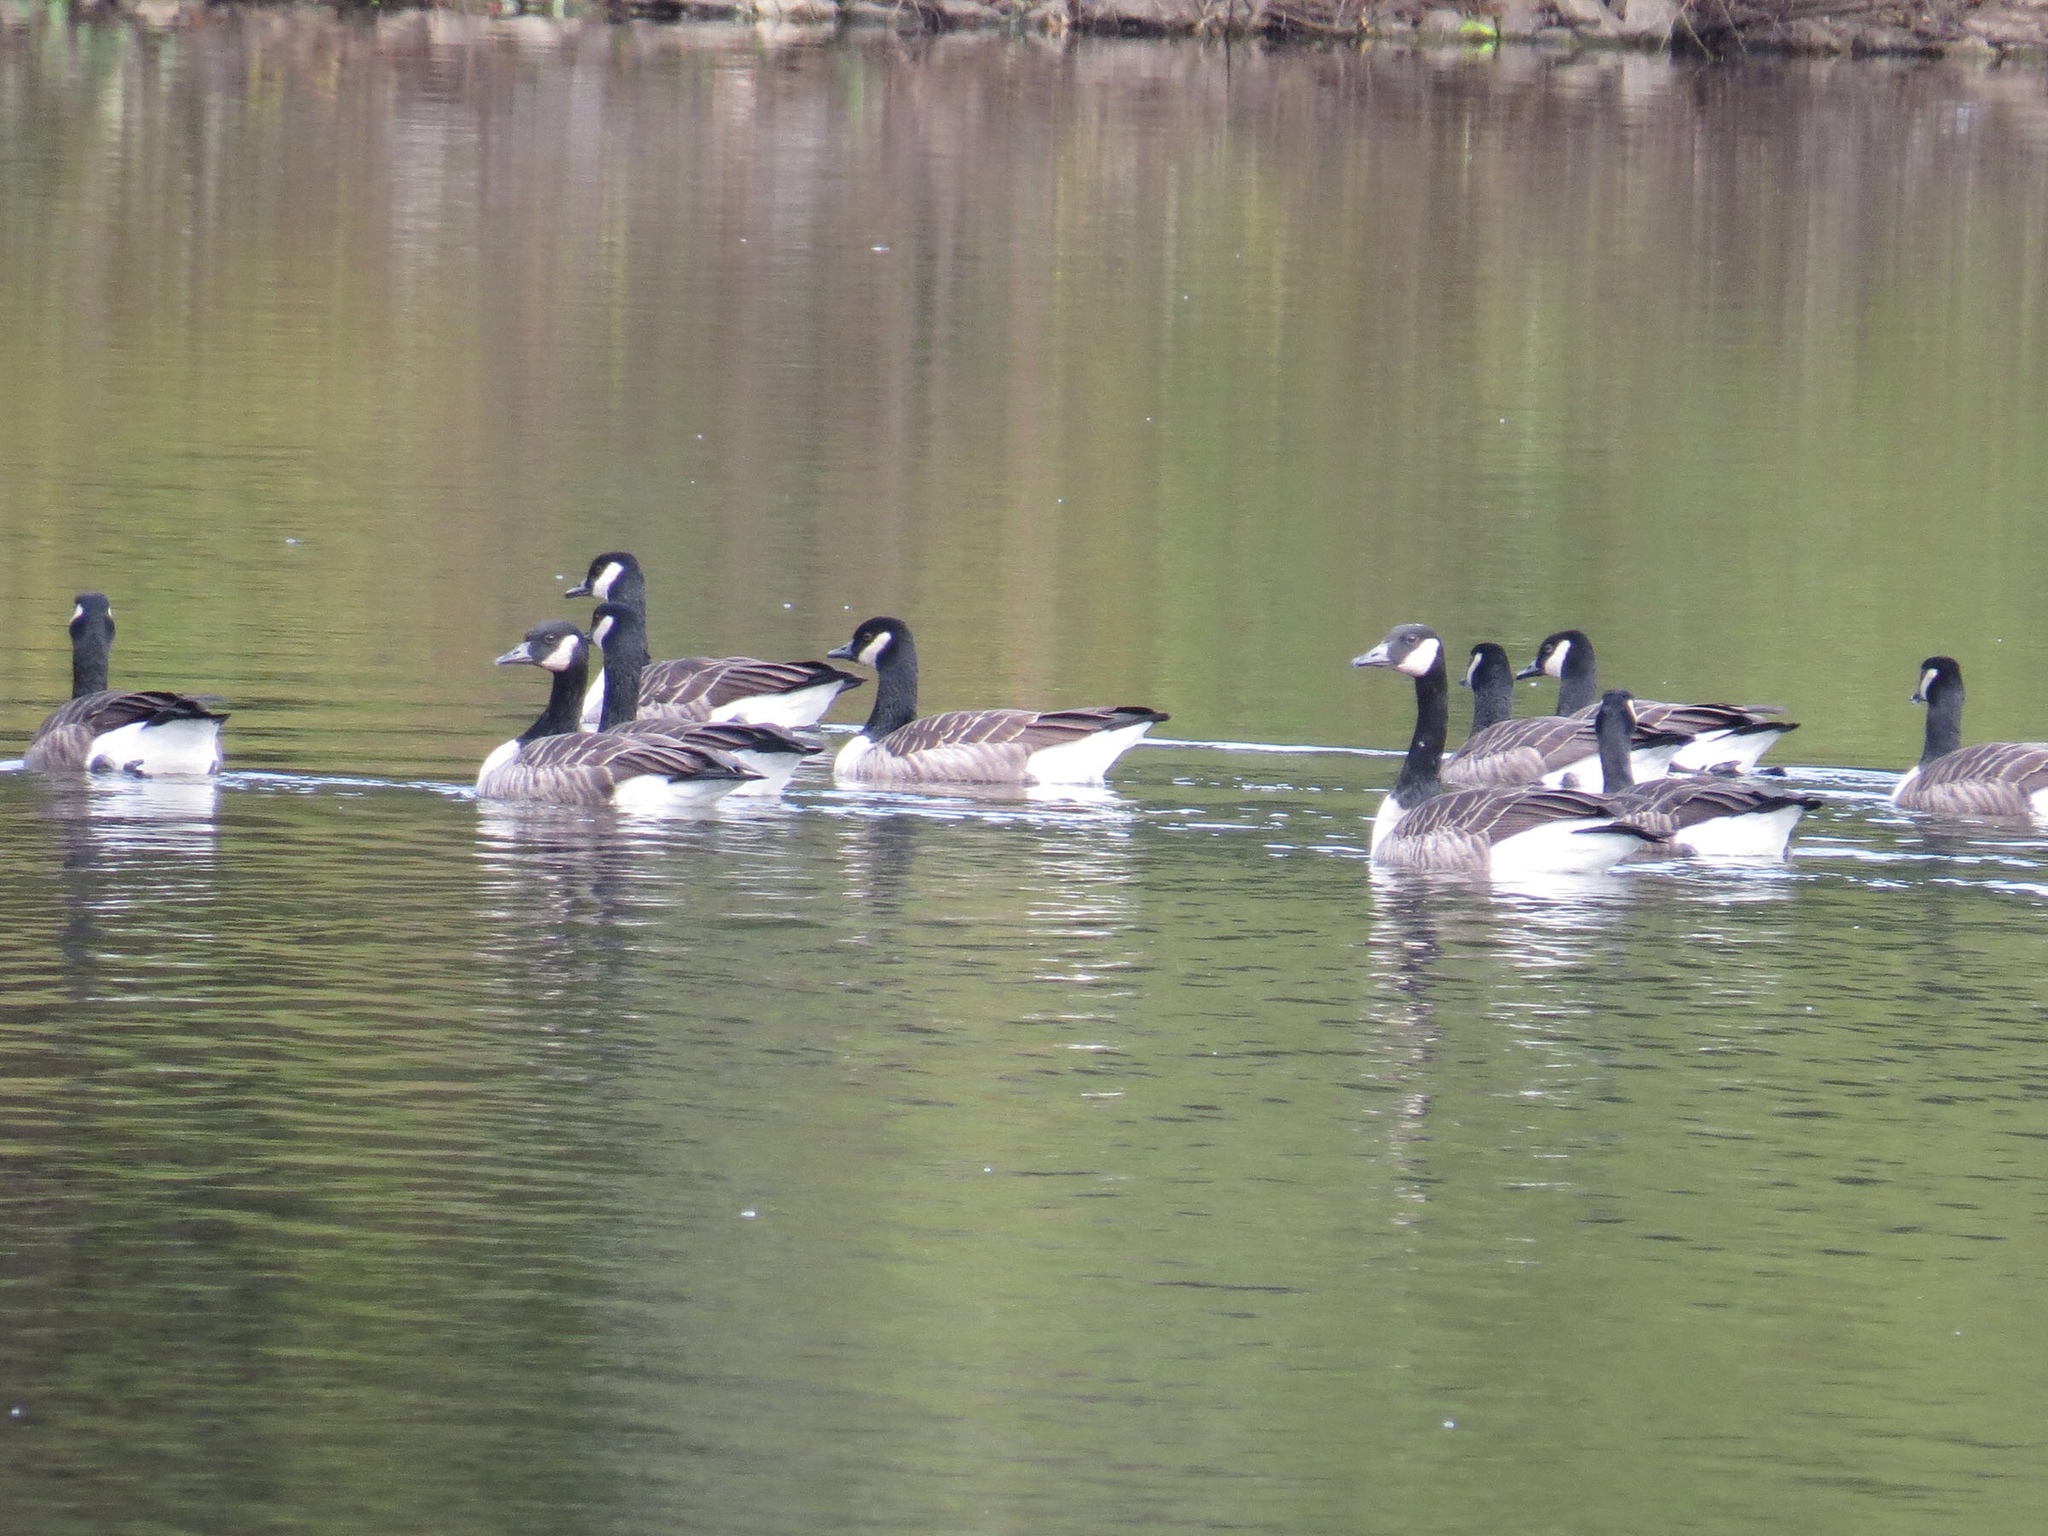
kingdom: Animalia
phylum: Chordata
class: Aves
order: Anseriformes
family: Anatidae
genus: Branta
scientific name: Branta canadensis
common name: Canada goose
